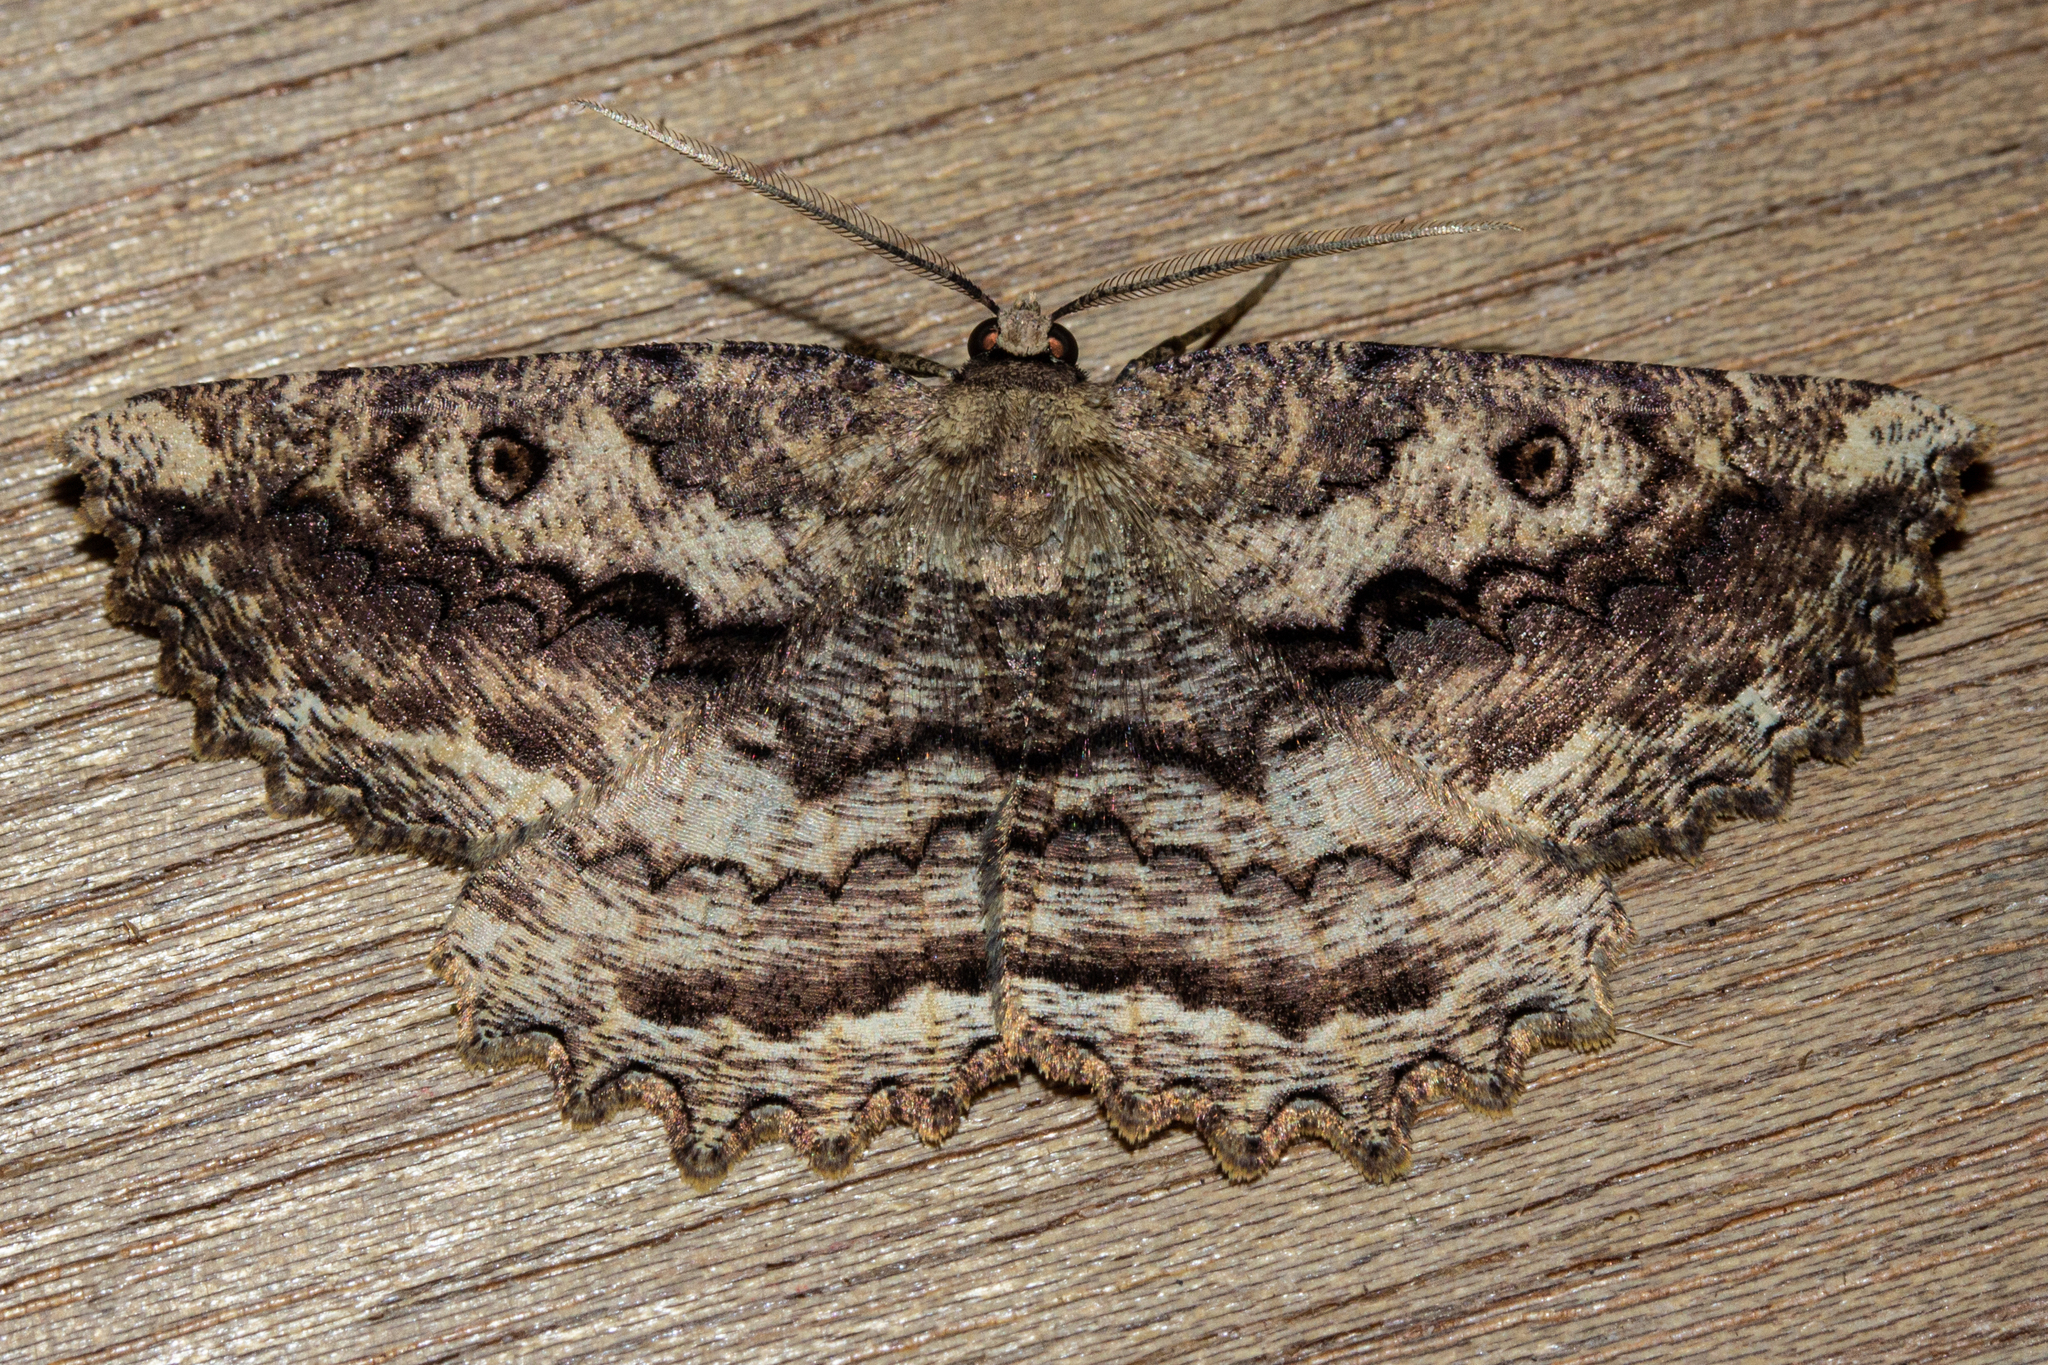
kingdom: Animalia
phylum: Arthropoda
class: Insecta
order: Lepidoptera
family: Geometridae
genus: Gellonia
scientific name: Gellonia pannularia
